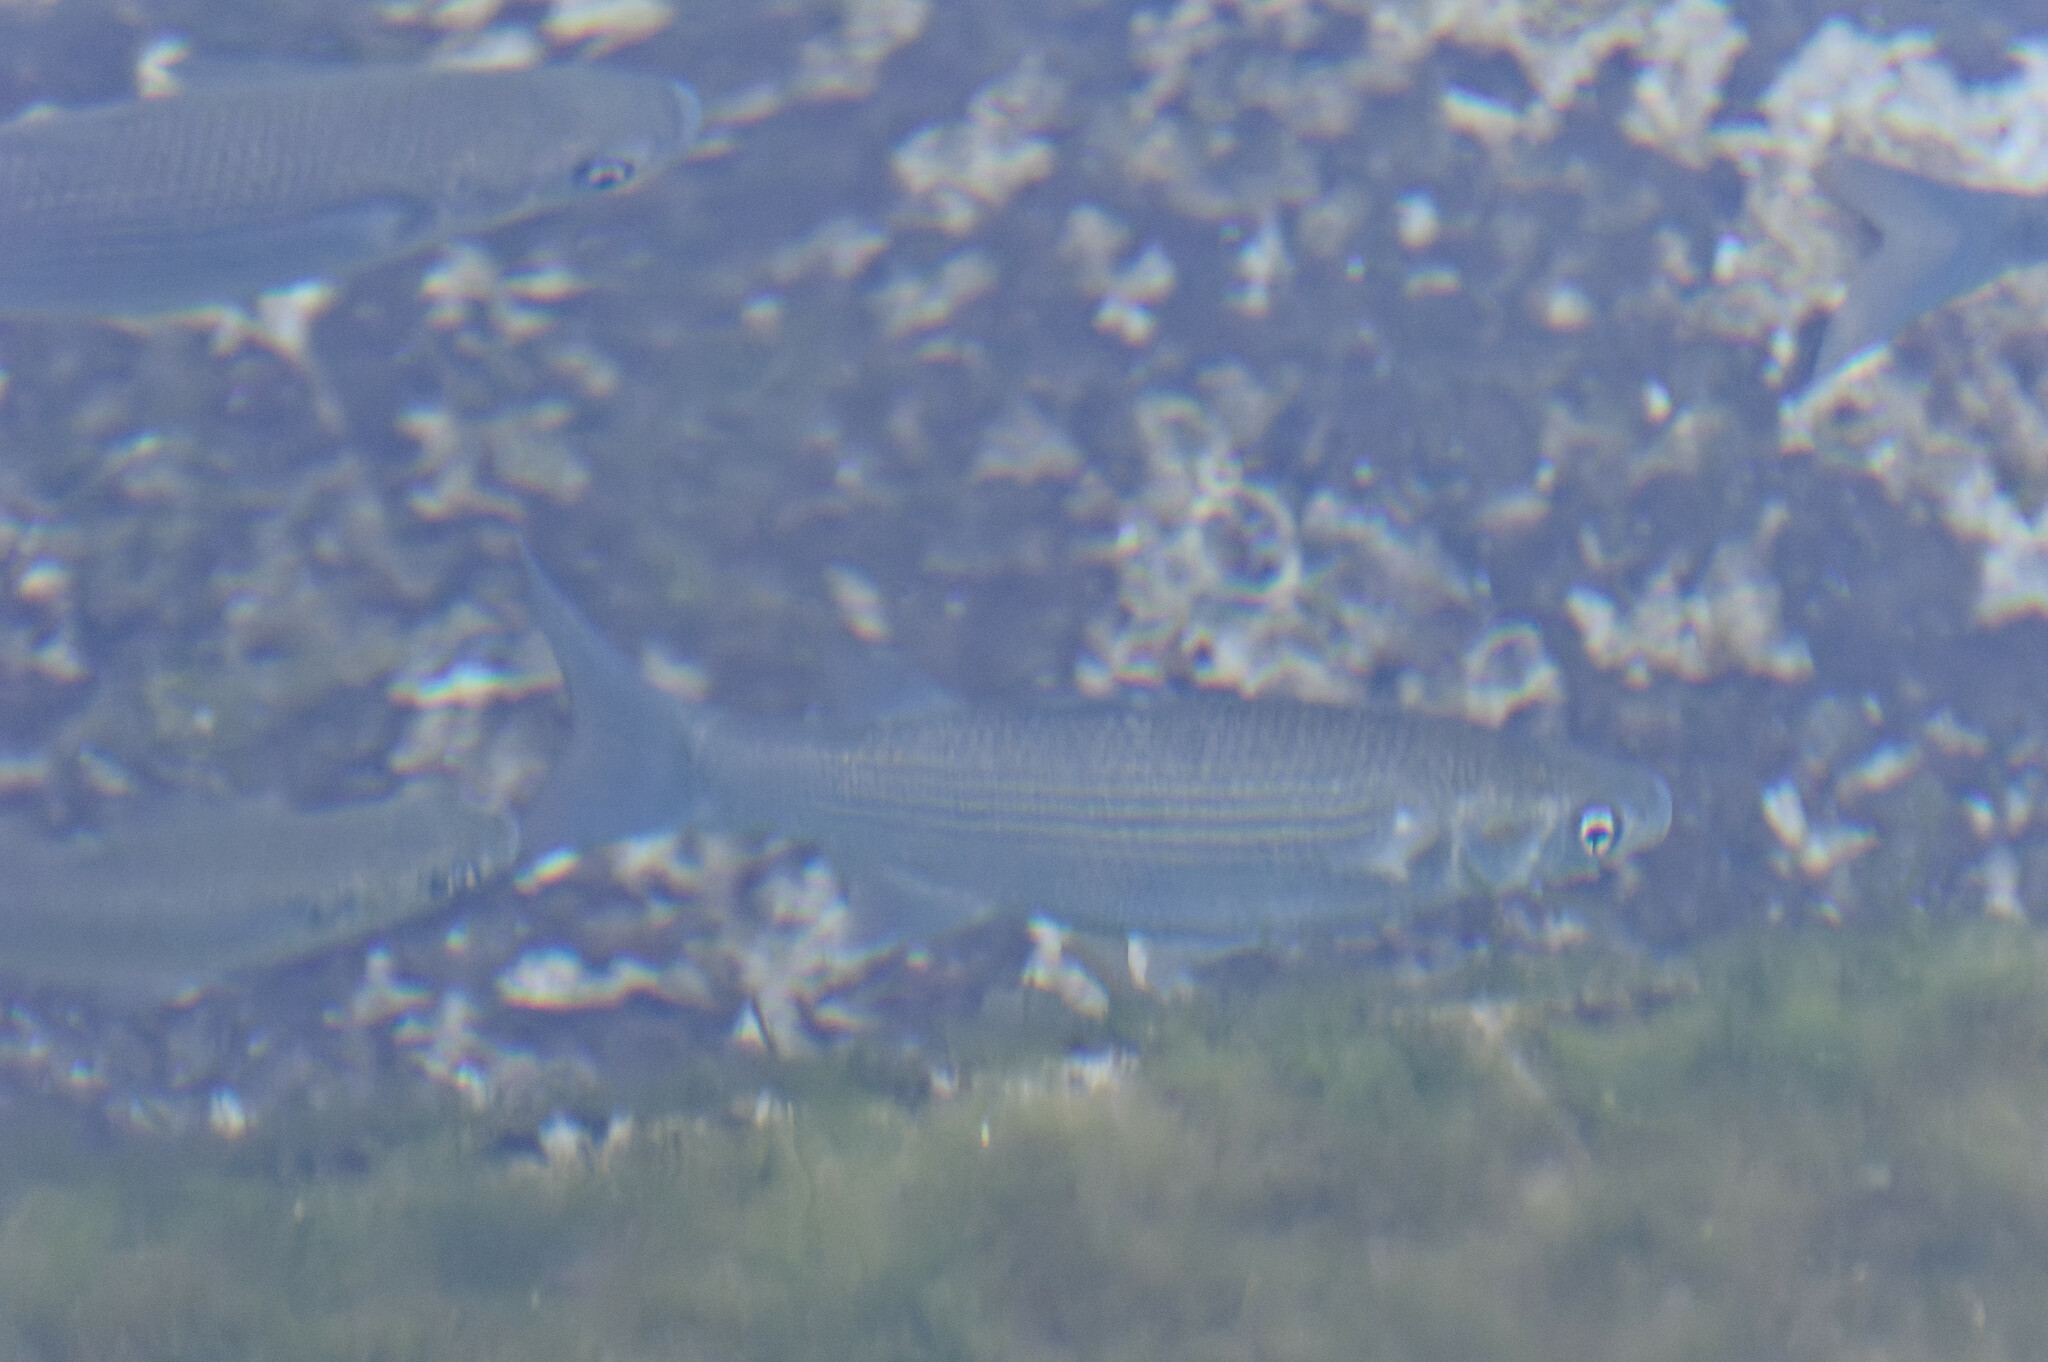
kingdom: Animalia
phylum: Chordata
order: Mugiliformes
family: Mugilidae
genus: Chelon
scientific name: Chelon labrosus
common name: Thick-lipped mullet
